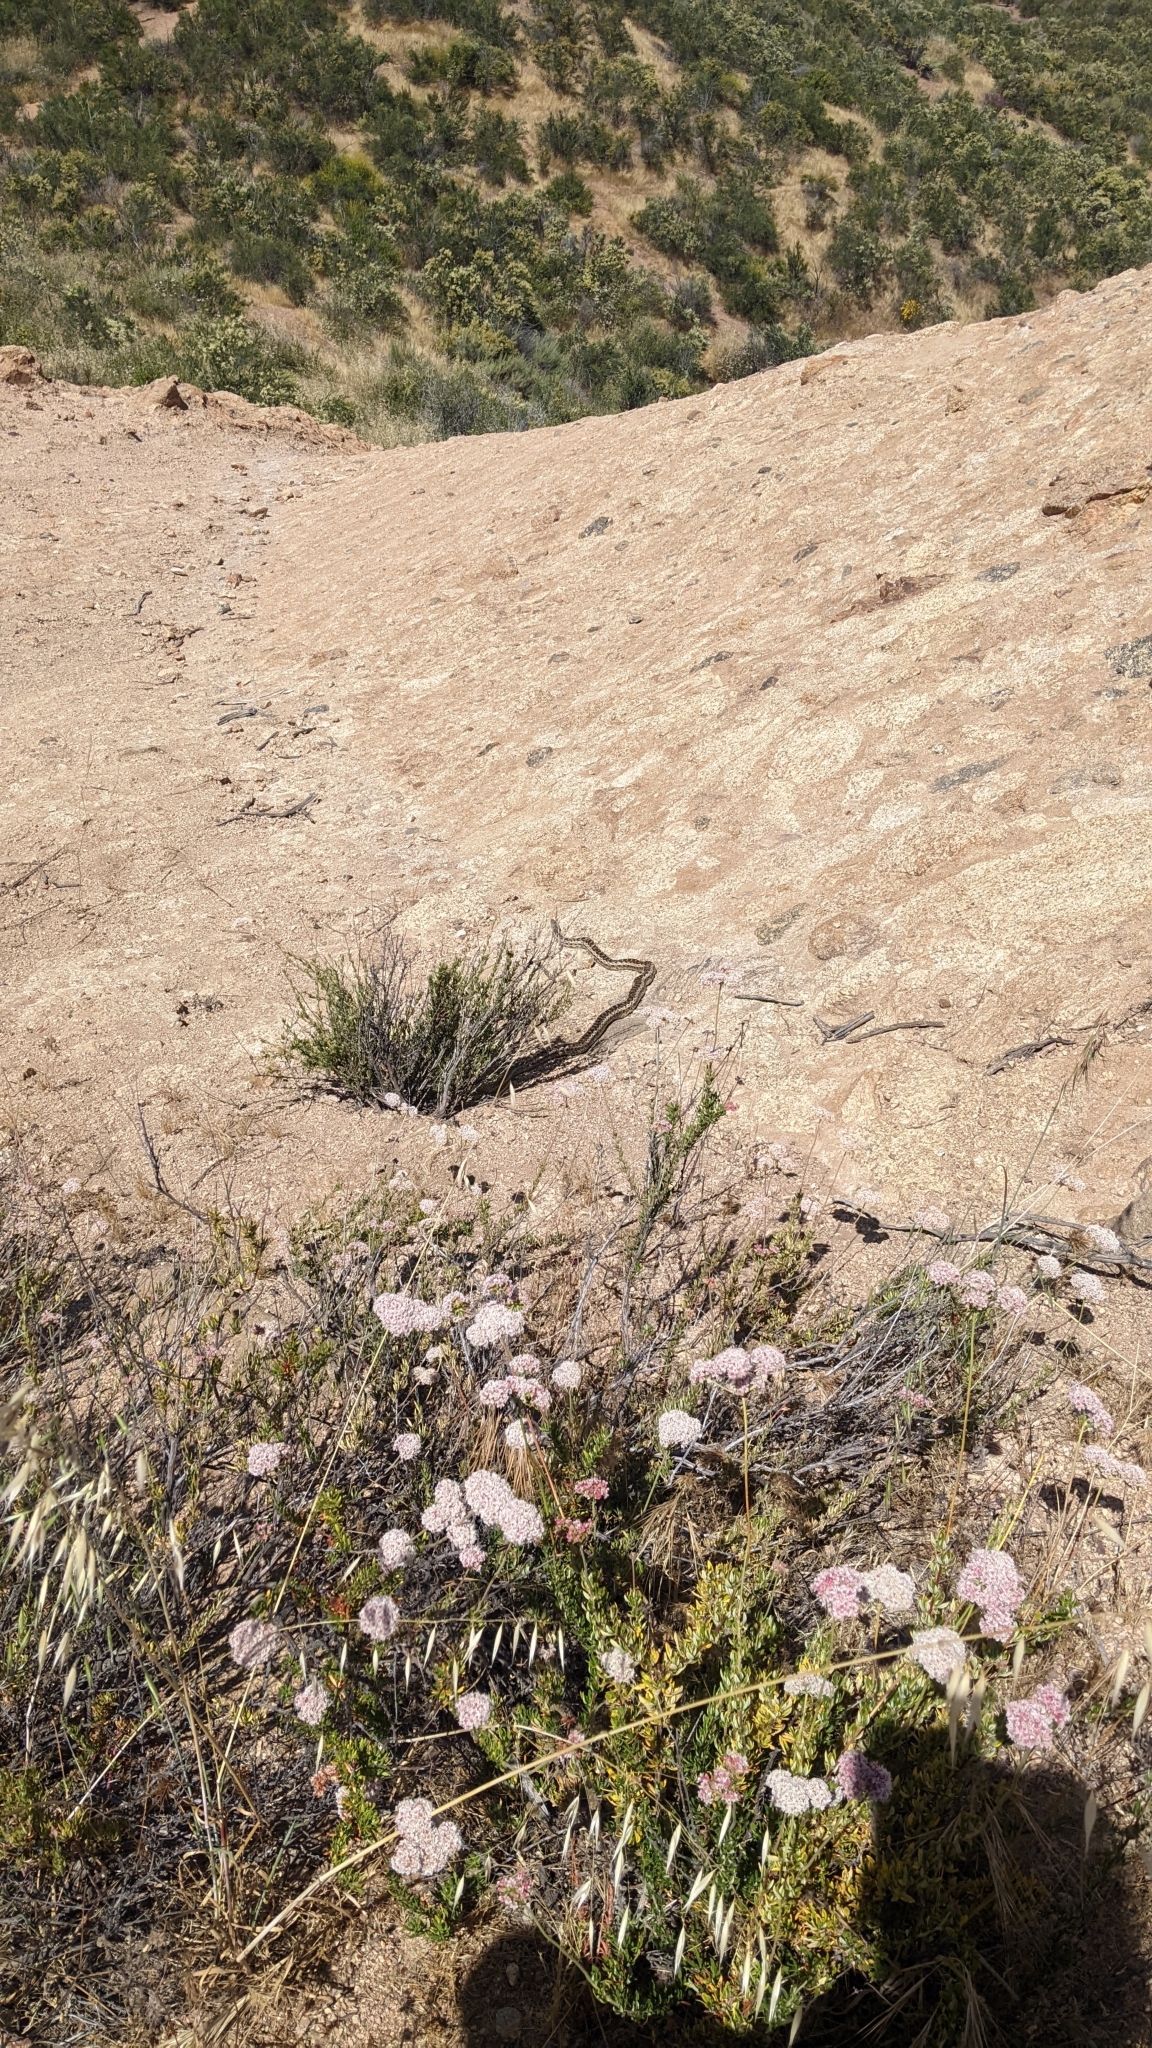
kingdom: Animalia
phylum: Chordata
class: Squamata
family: Colubridae
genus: Pituophis
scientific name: Pituophis catenifer
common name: Gopher snake
